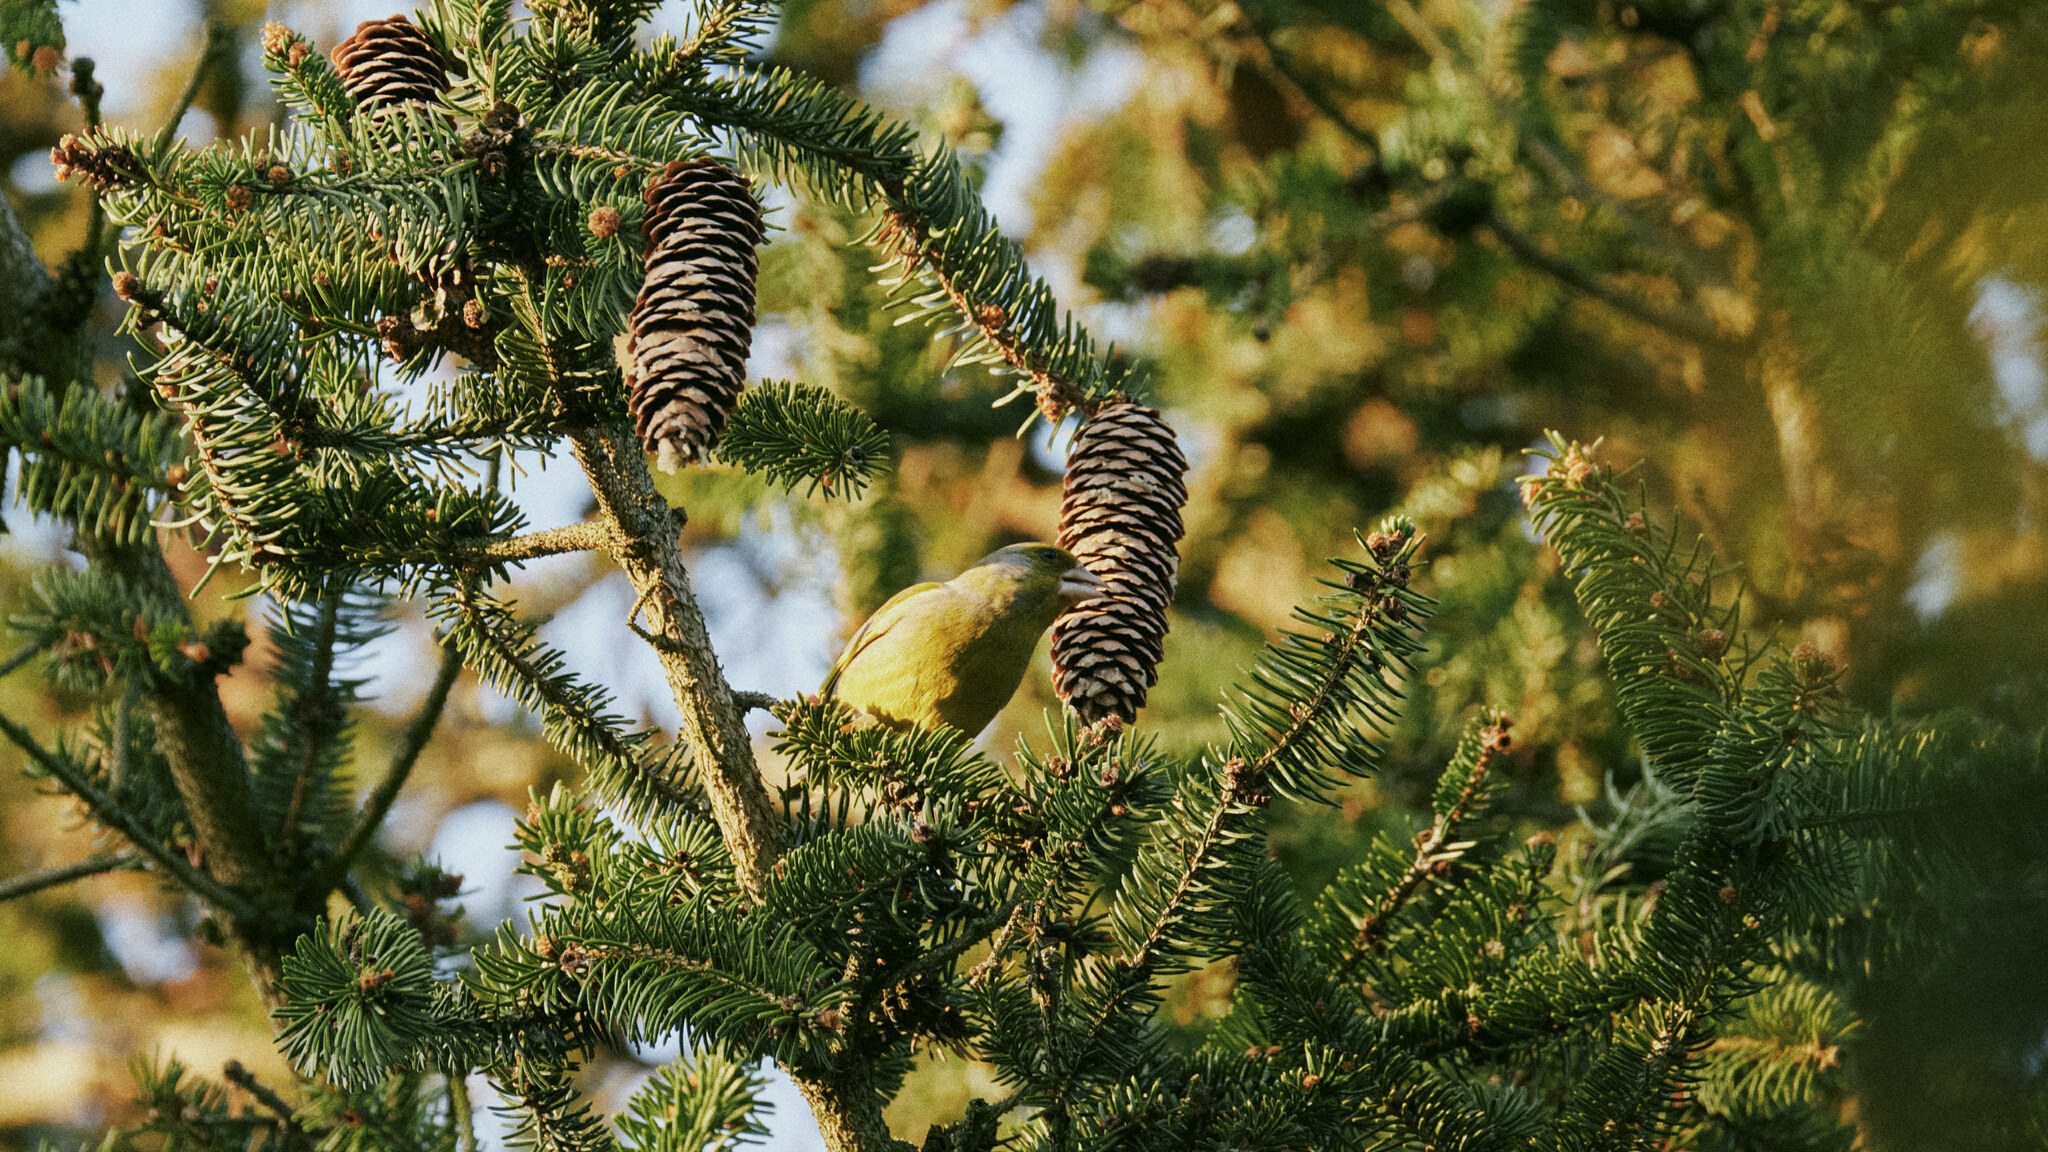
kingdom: Plantae
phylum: Tracheophyta
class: Liliopsida
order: Poales
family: Poaceae
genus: Chloris
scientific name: Chloris chloris
